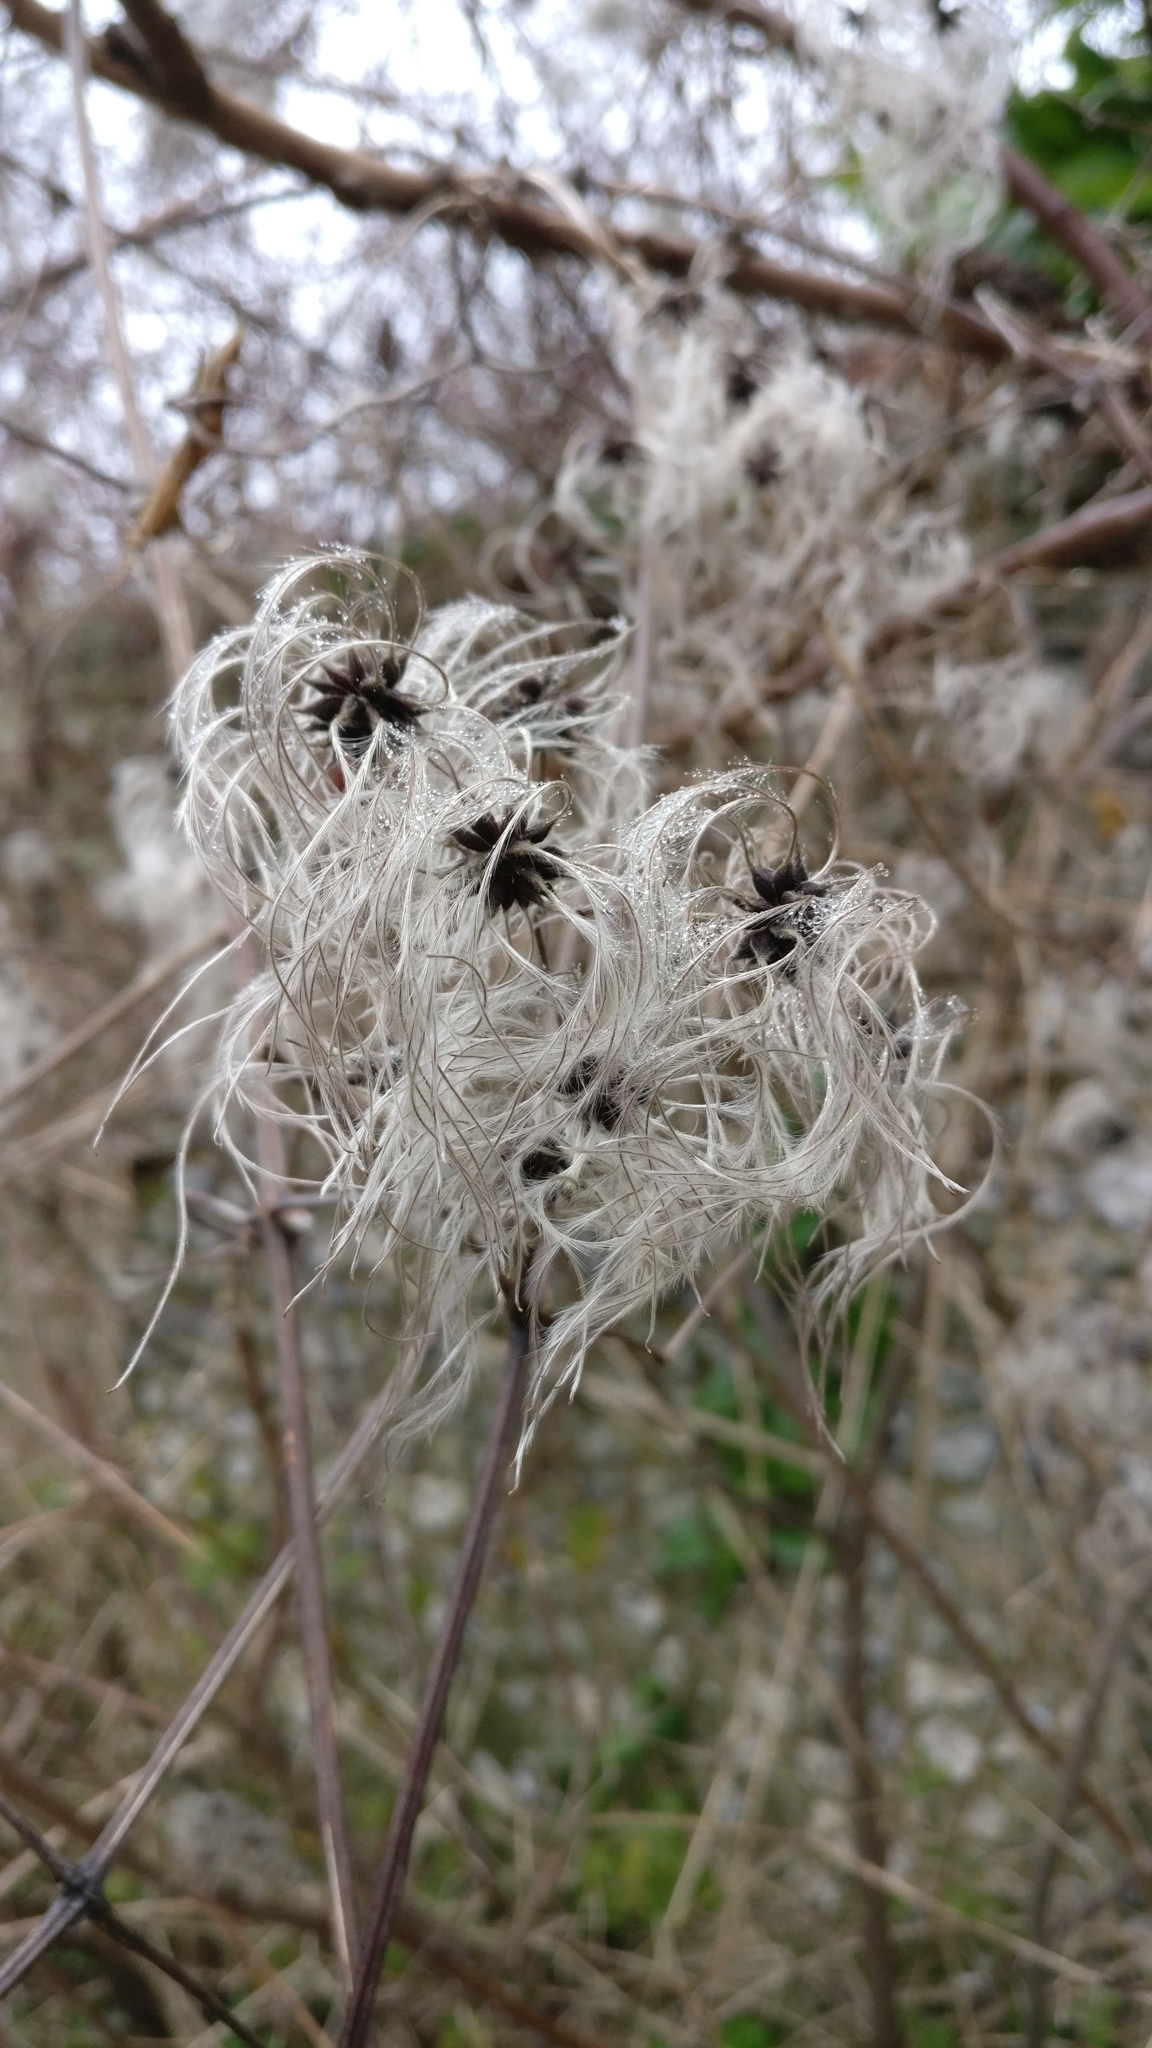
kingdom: Plantae
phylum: Tracheophyta
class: Magnoliopsida
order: Ranunculales
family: Ranunculaceae
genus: Clematis
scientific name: Clematis vitalba
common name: Evergreen clematis
